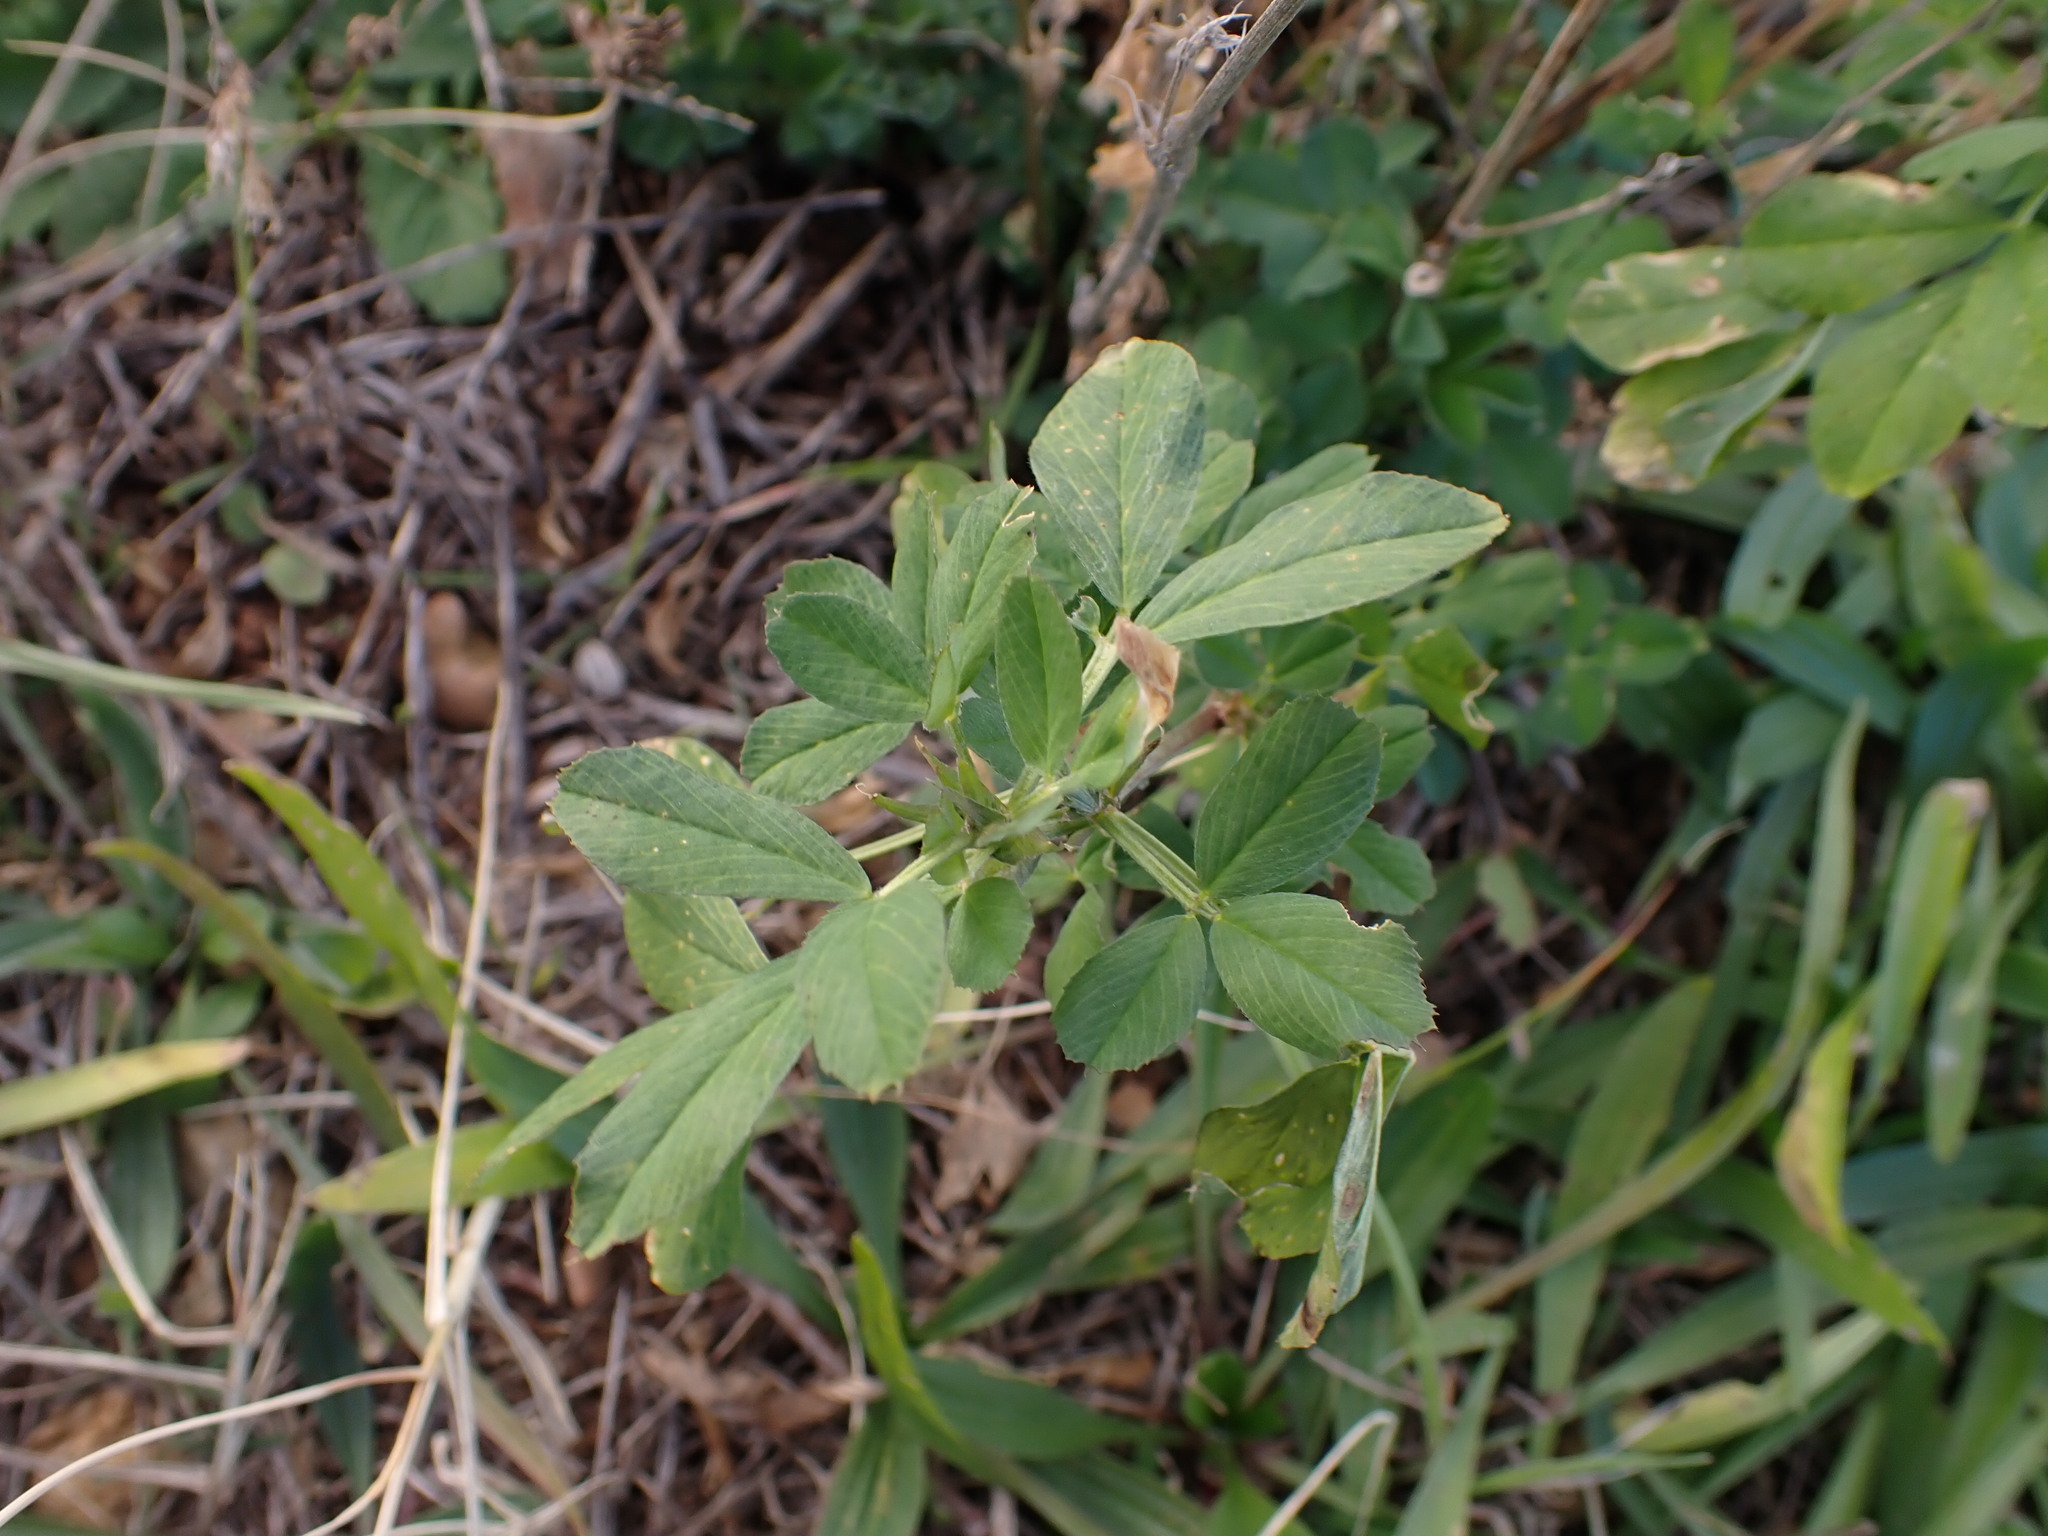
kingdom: Plantae
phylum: Tracheophyta
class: Magnoliopsida
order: Fabales
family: Fabaceae
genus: Medicago
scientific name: Medicago sativa
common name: Alfalfa
